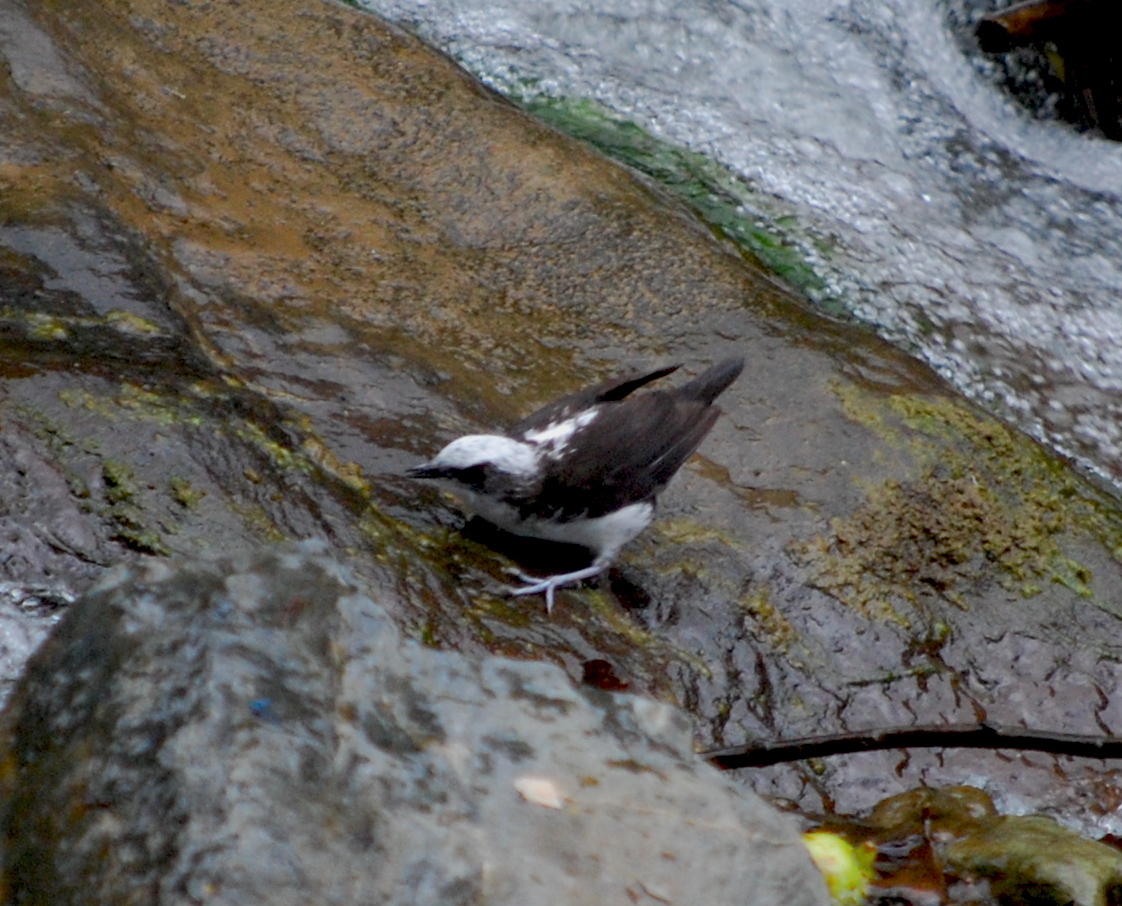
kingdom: Animalia
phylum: Chordata
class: Aves
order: Passeriformes
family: Cinclidae
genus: Cinclus
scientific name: Cinclus leucocephalus
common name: White-capped dipper
